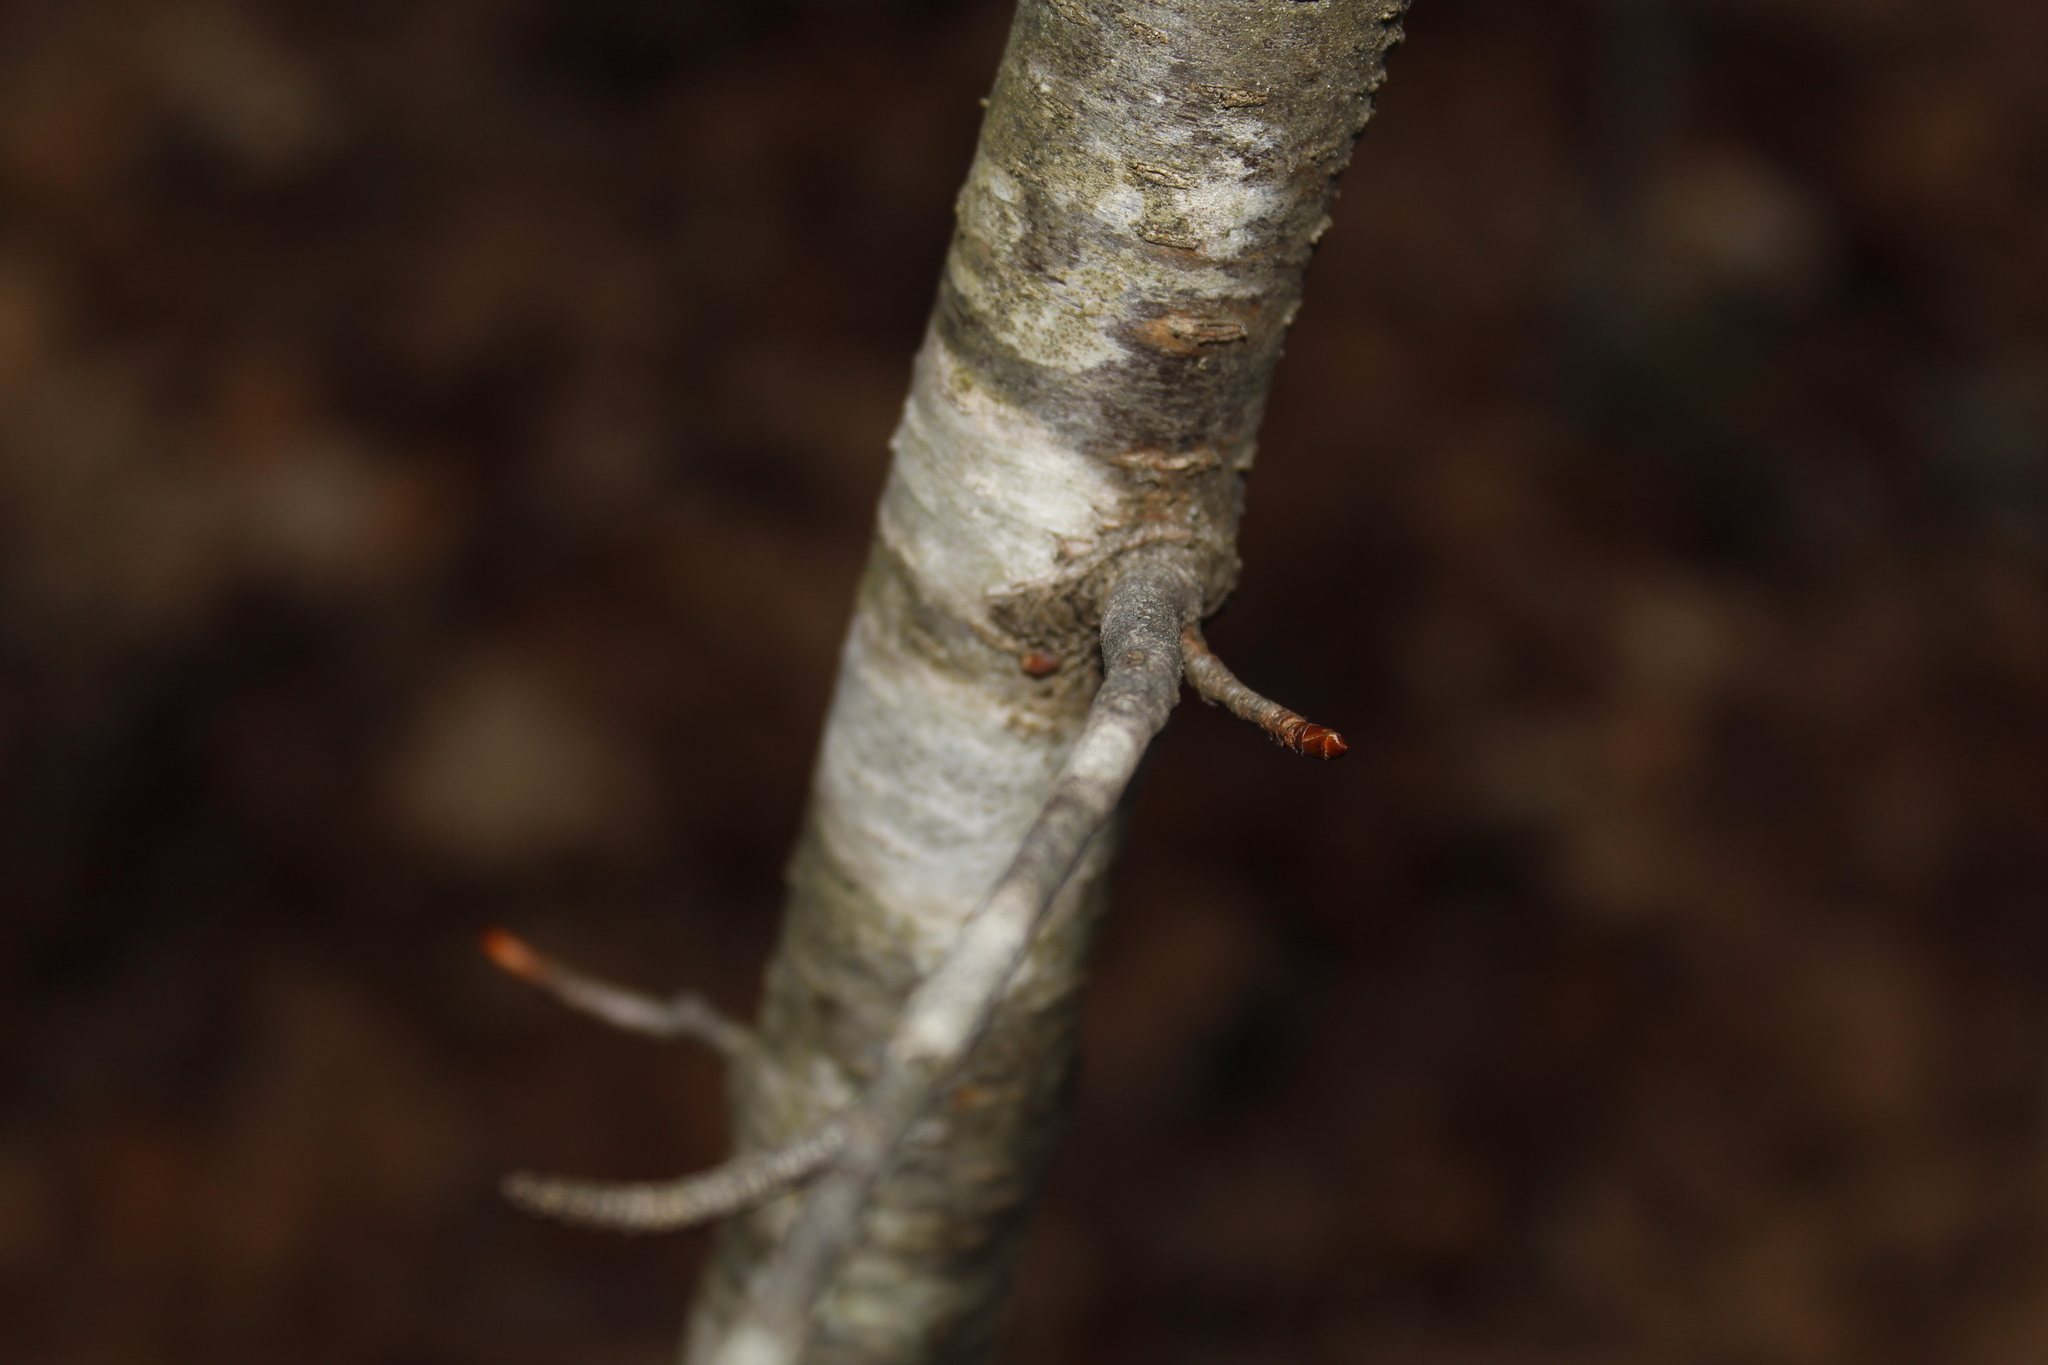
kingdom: Plantae
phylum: Tracheophyta
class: Magnoliopsida
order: Fagales
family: Fagaceae
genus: Fagus
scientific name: Fagus grandifolia
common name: American beech
